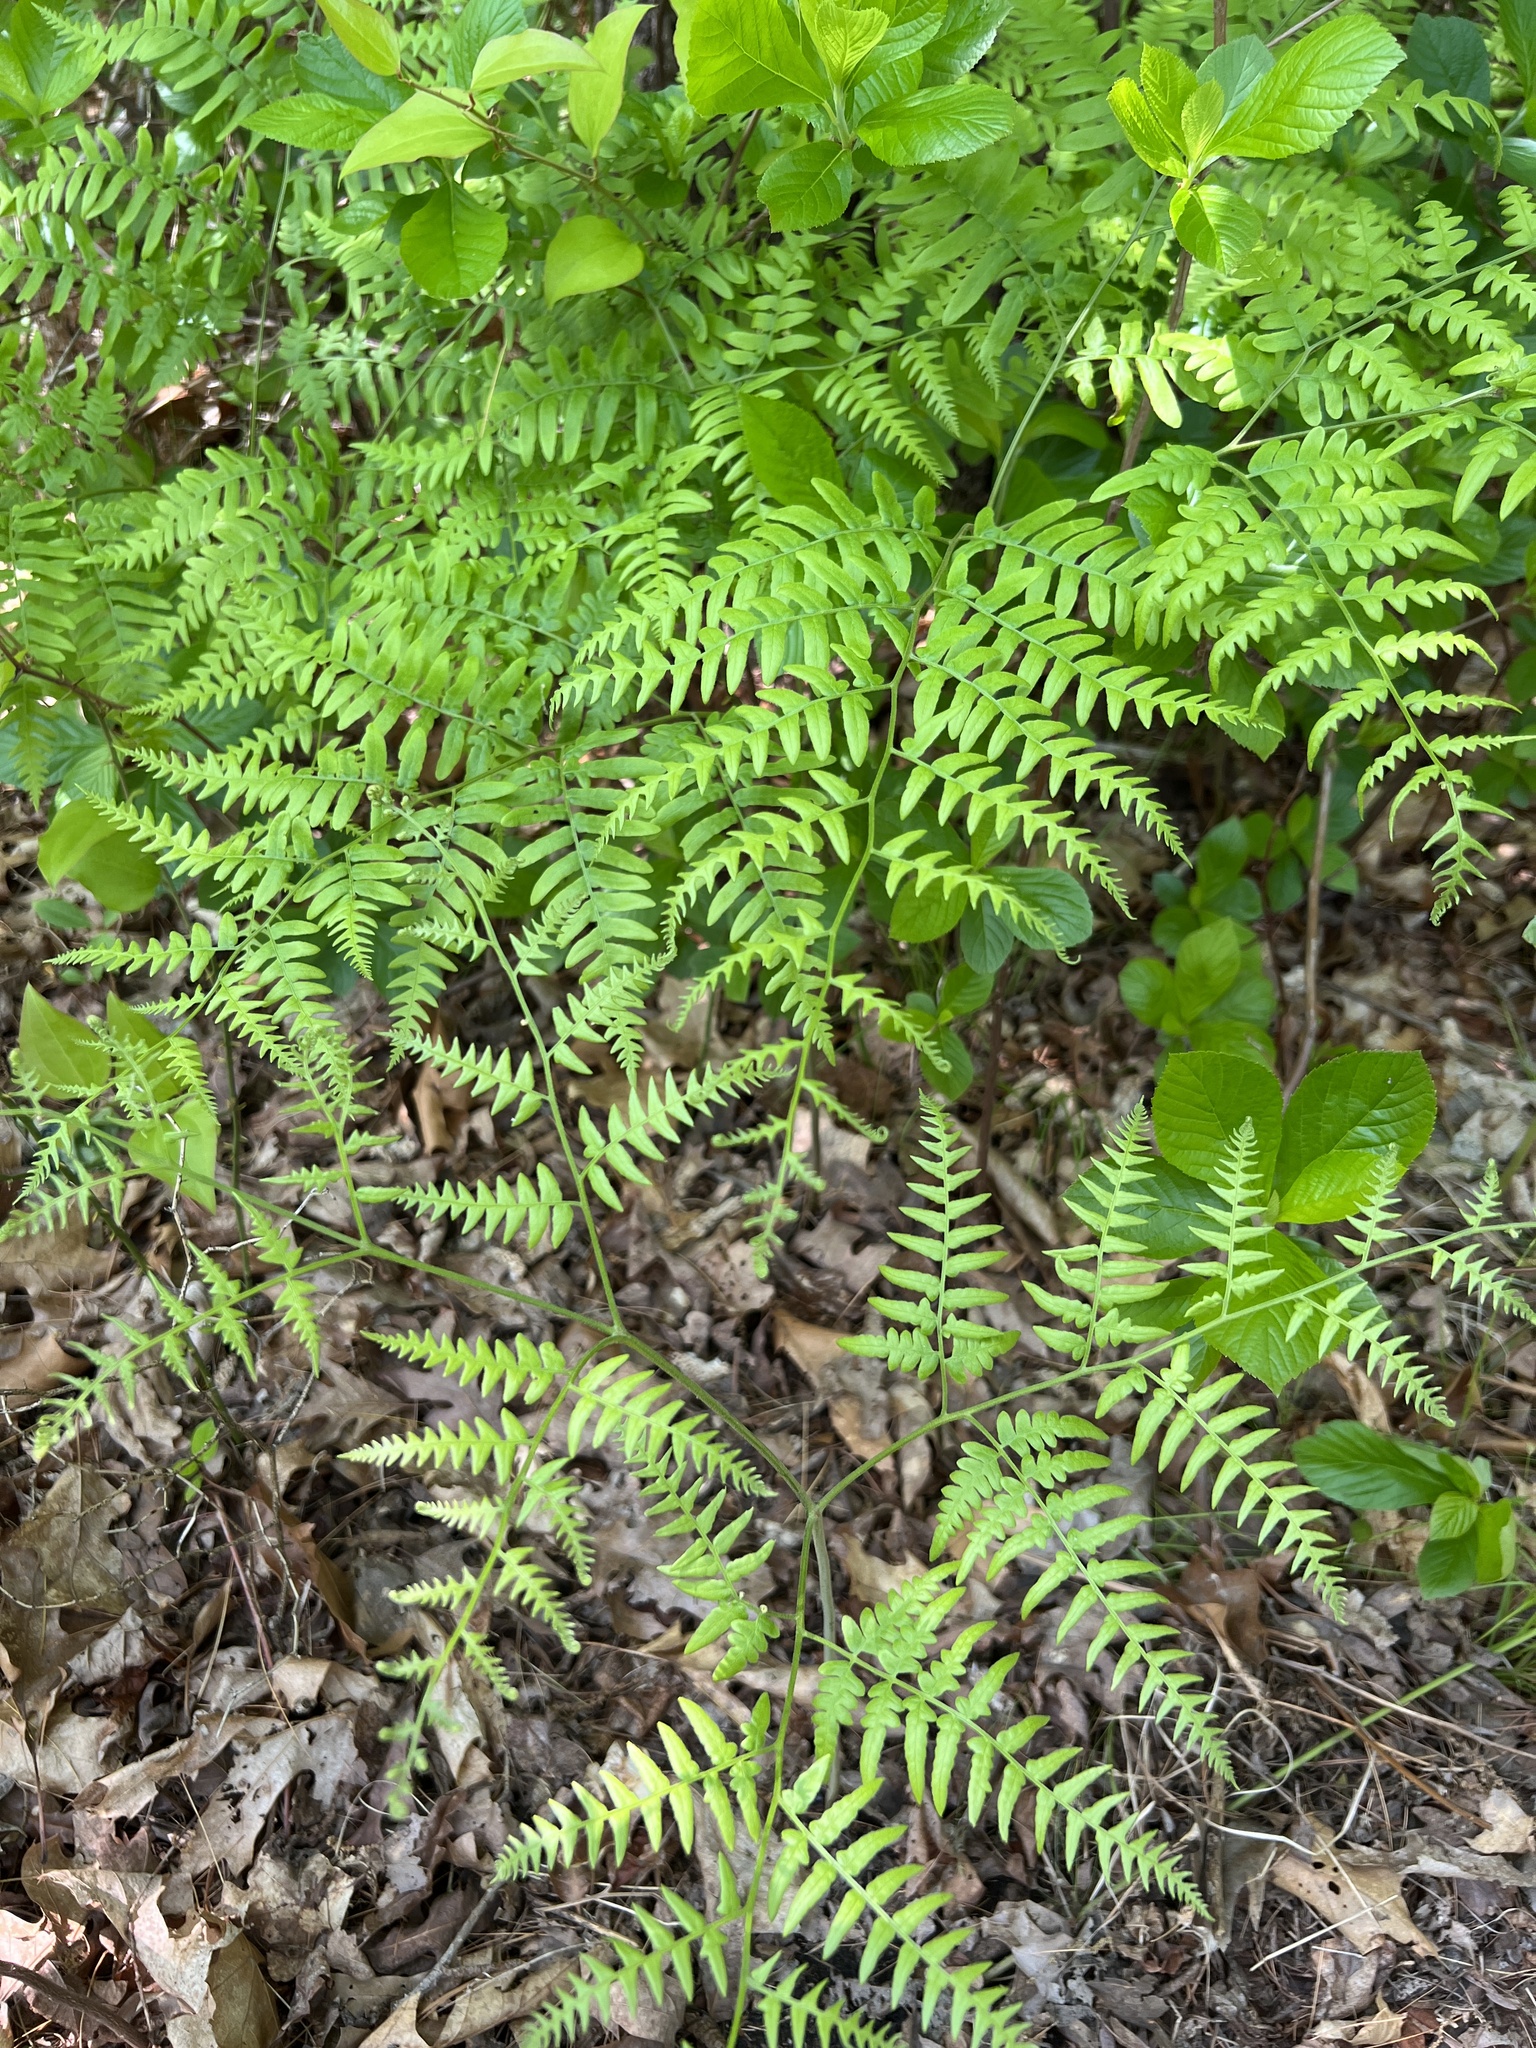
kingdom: Plantae
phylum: Tracheophyta
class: Polypodiopsida
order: Polypodiales
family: Dennstaedtiaceae
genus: Pteridium
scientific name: Pteridium aquilinum
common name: Bracken
